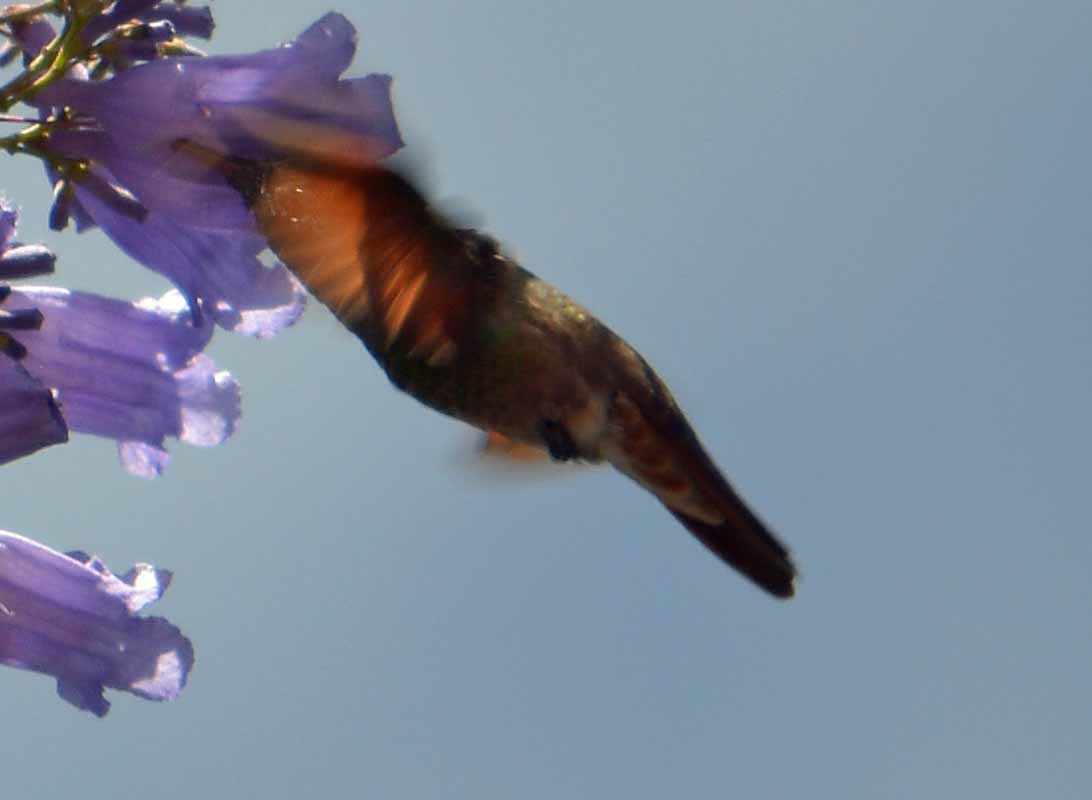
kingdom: Animalia
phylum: Chordata
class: Aves
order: Apodiformes
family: Trochilidae
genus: Saucerottia
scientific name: Saucerottia beryllina
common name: Berylline hummingbird
